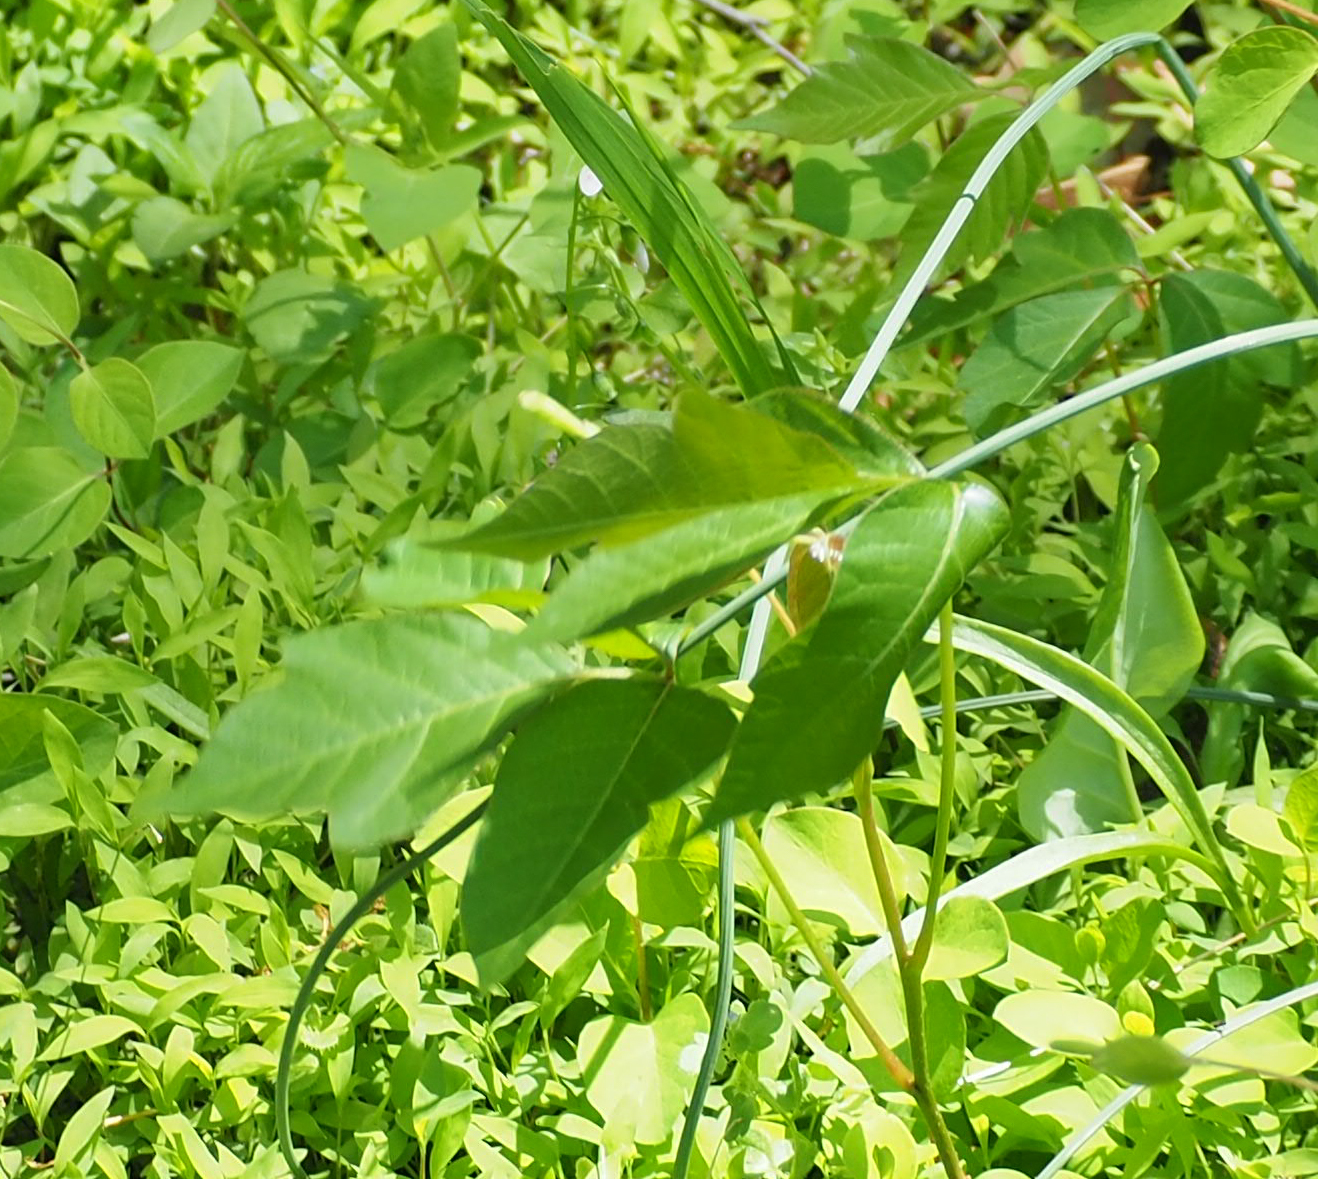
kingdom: Plantae
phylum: Tracheophyta
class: Magnoliopsida
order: Sapindales
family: Anacardiaceae
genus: Toxicodendron
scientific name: Toxicodendron radicans
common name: Poison ivy
